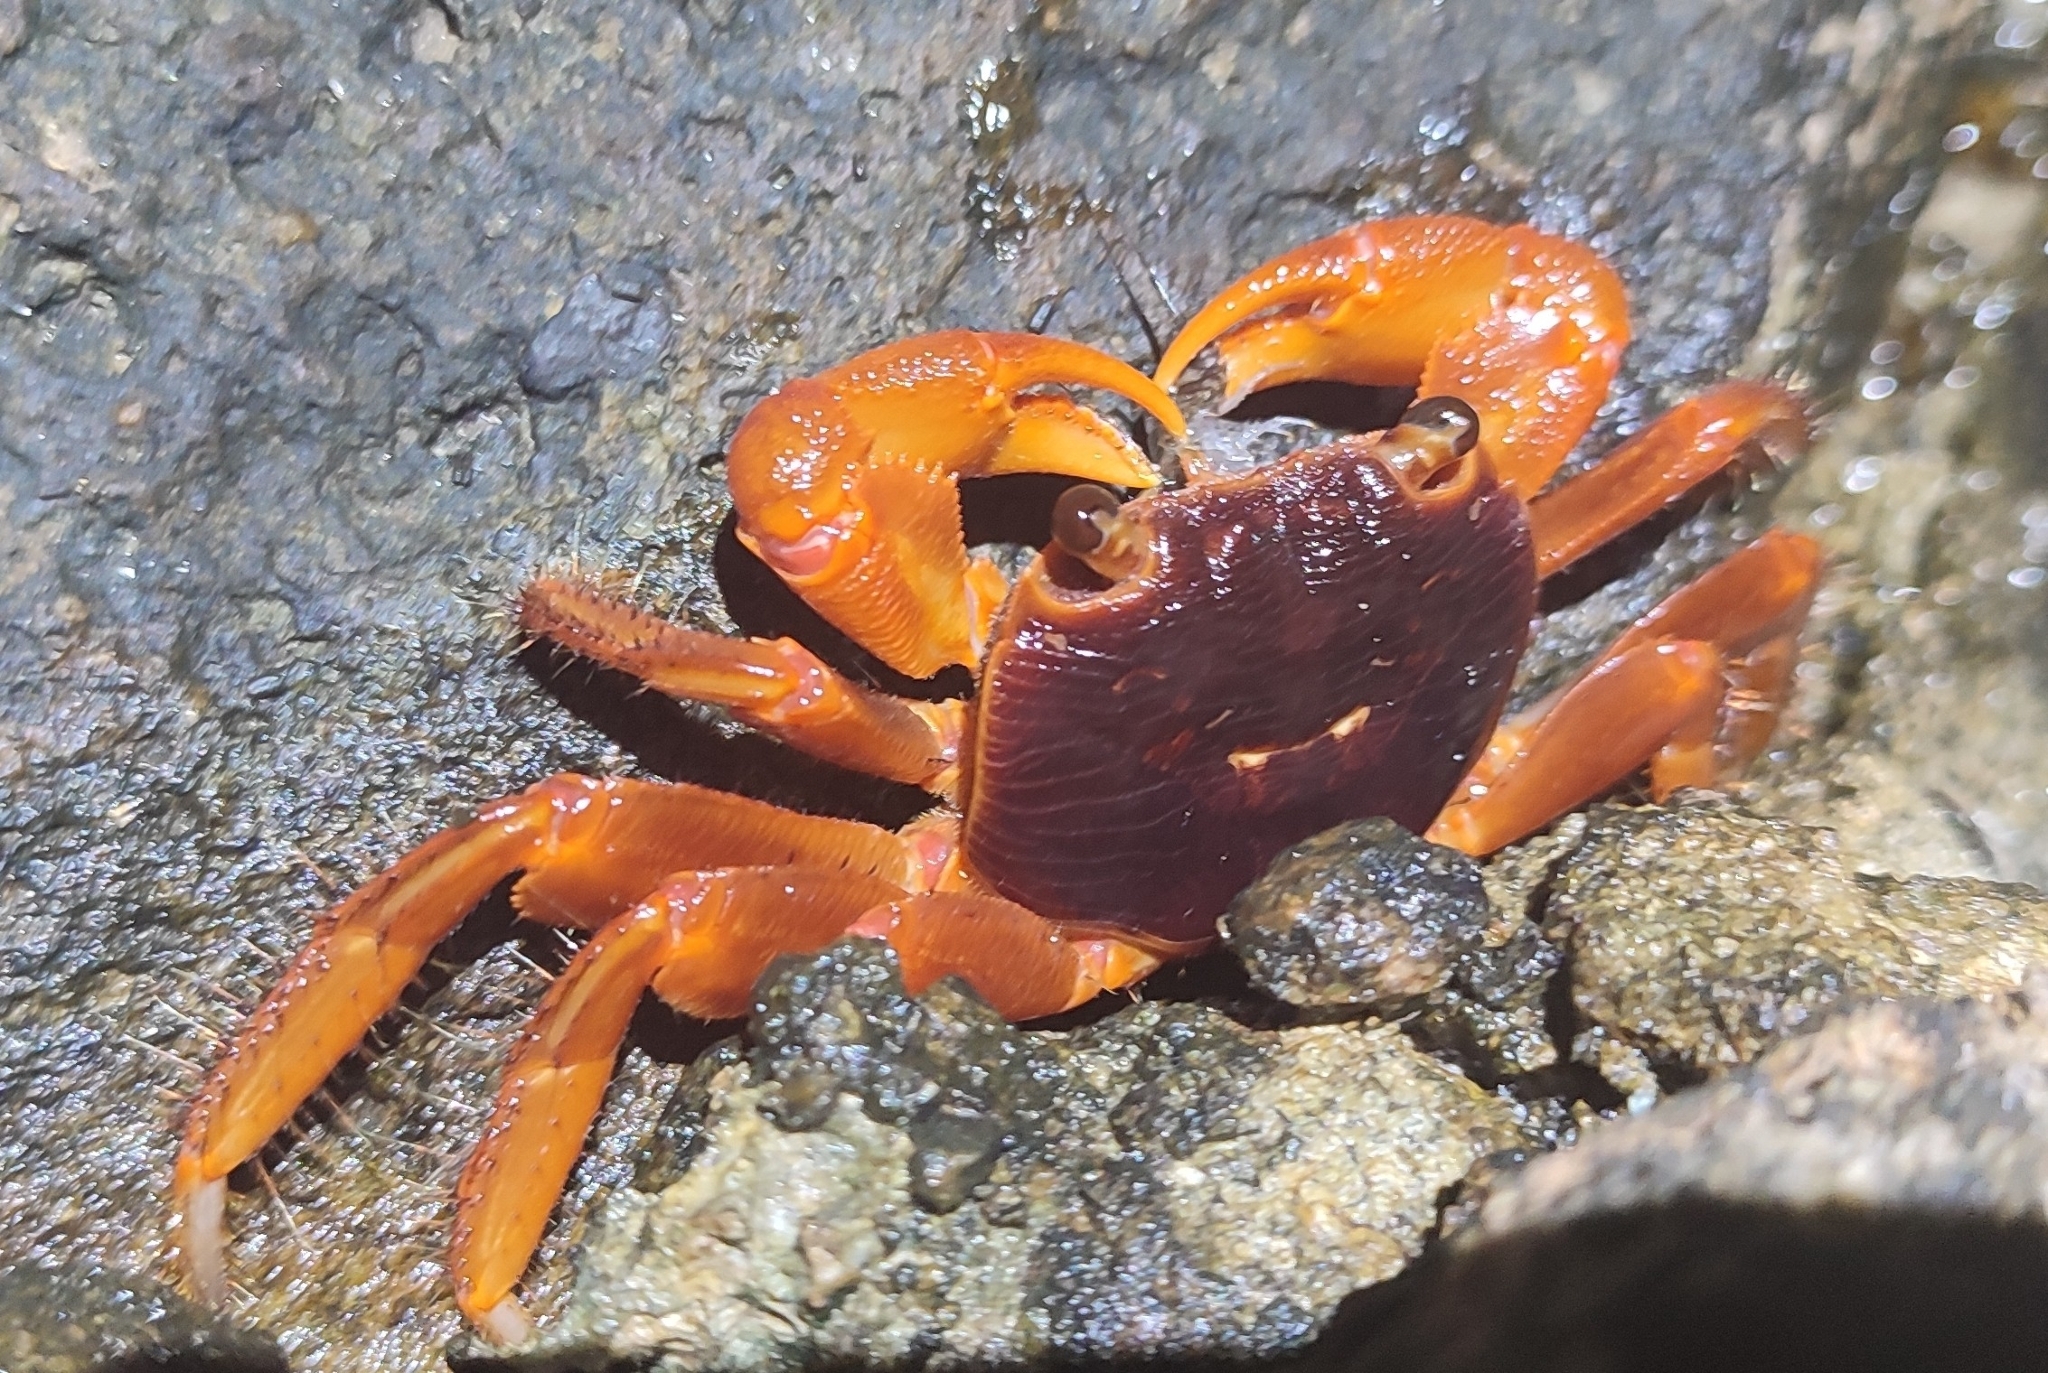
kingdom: Animalia
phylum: Arthropoda
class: Malacostraca
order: Decapoda
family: Grapsidae
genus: Geograpsus
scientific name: Geograpsus stormi
